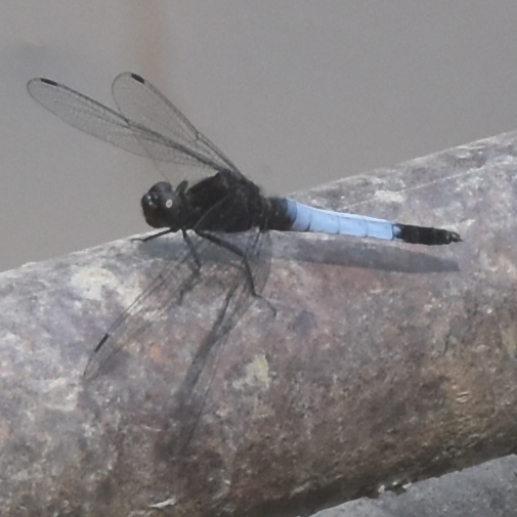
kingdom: Animalia
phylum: Arthropoda
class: Insecta
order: Odonata
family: Libellulidae
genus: Orthetrum
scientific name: Orthetrum triangulare
